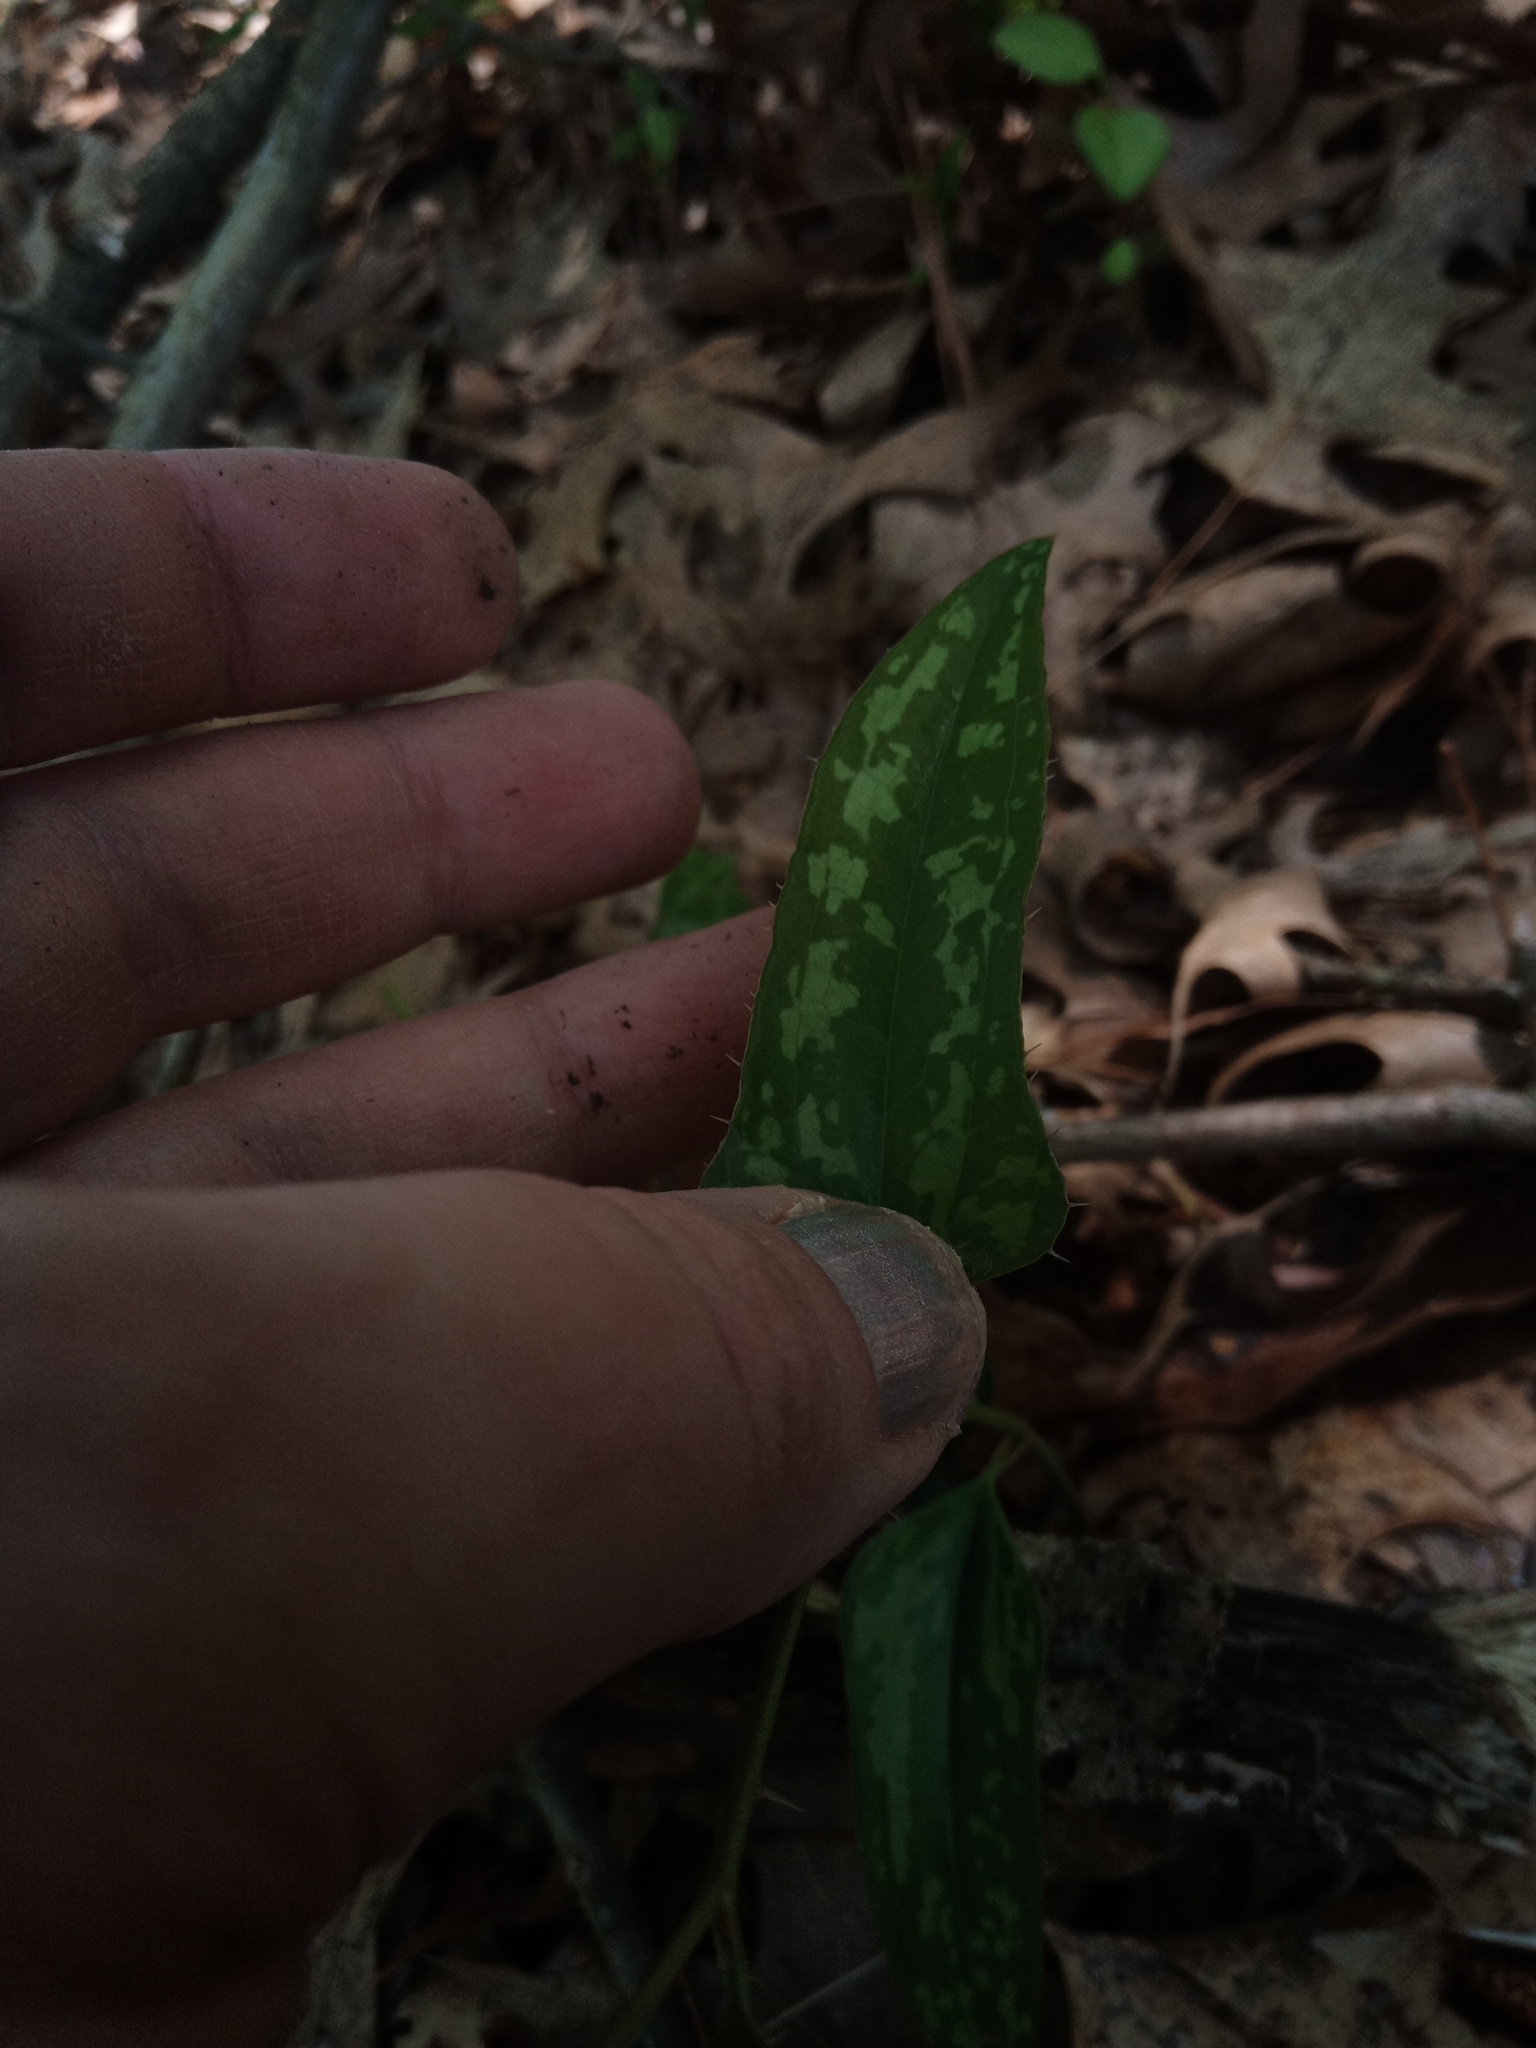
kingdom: Plantae
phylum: Tracheophyta
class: Liliopsida
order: Liliales
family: Smilacaceae
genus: Smilax
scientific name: Smilax bona-nox
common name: Catbrier
